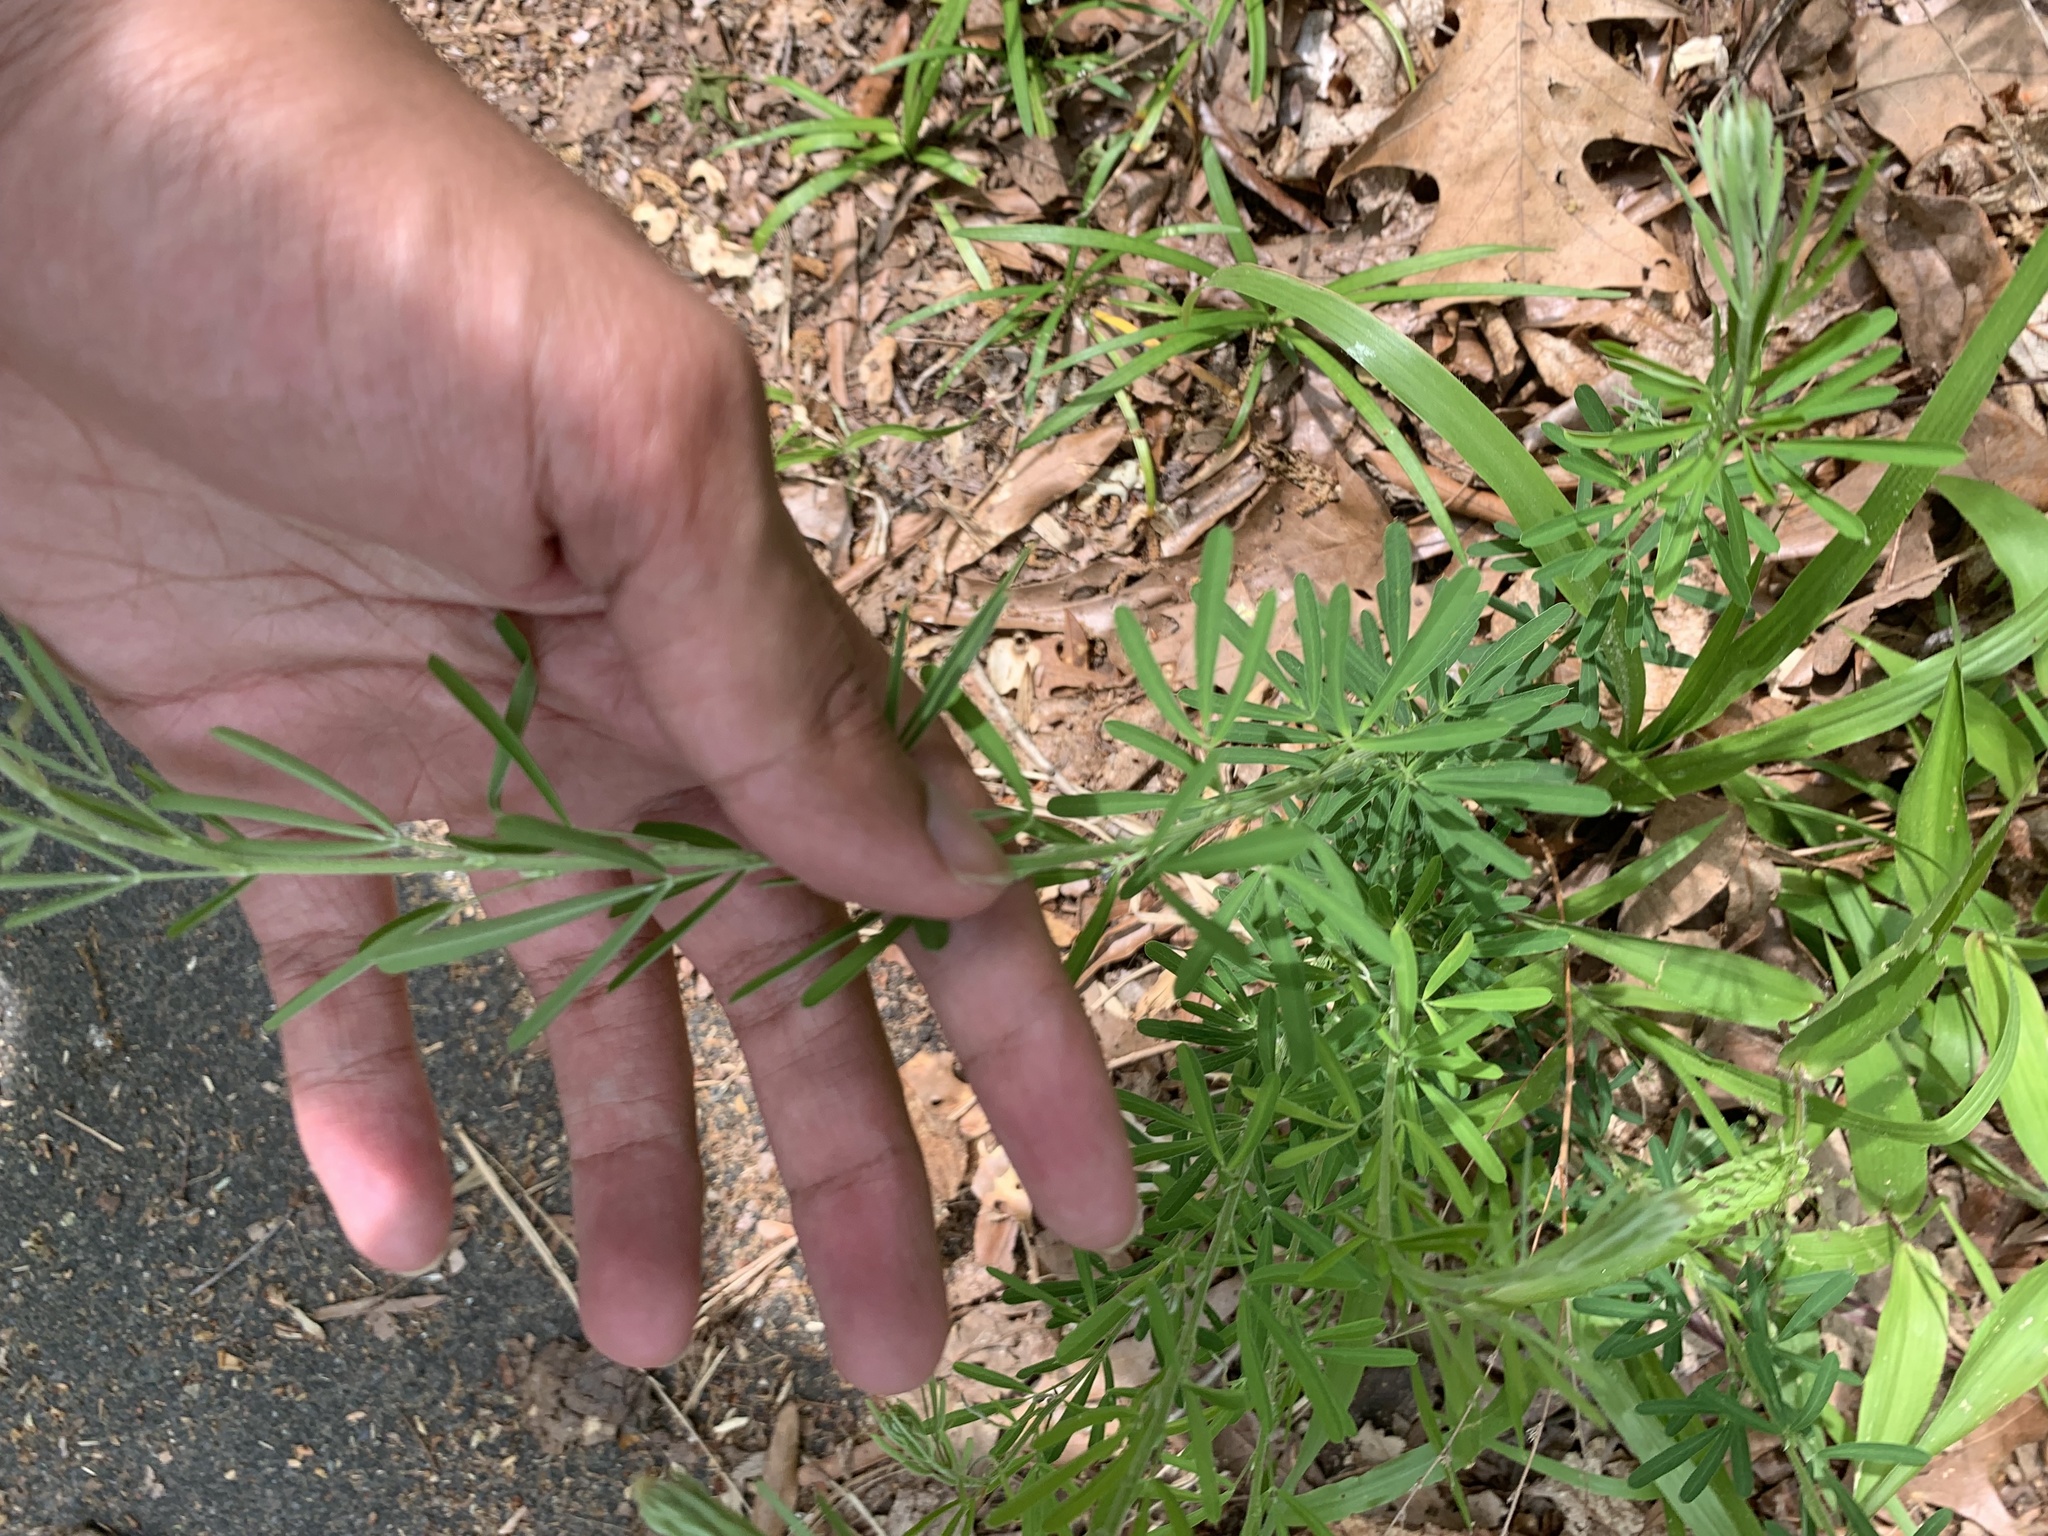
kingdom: Plantae
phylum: Tracheophyta
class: Magnoliopsida
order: Fabales
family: Fabaceae
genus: Lespedeza
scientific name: Lespedeza cuneata
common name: Chinese bush-clover
